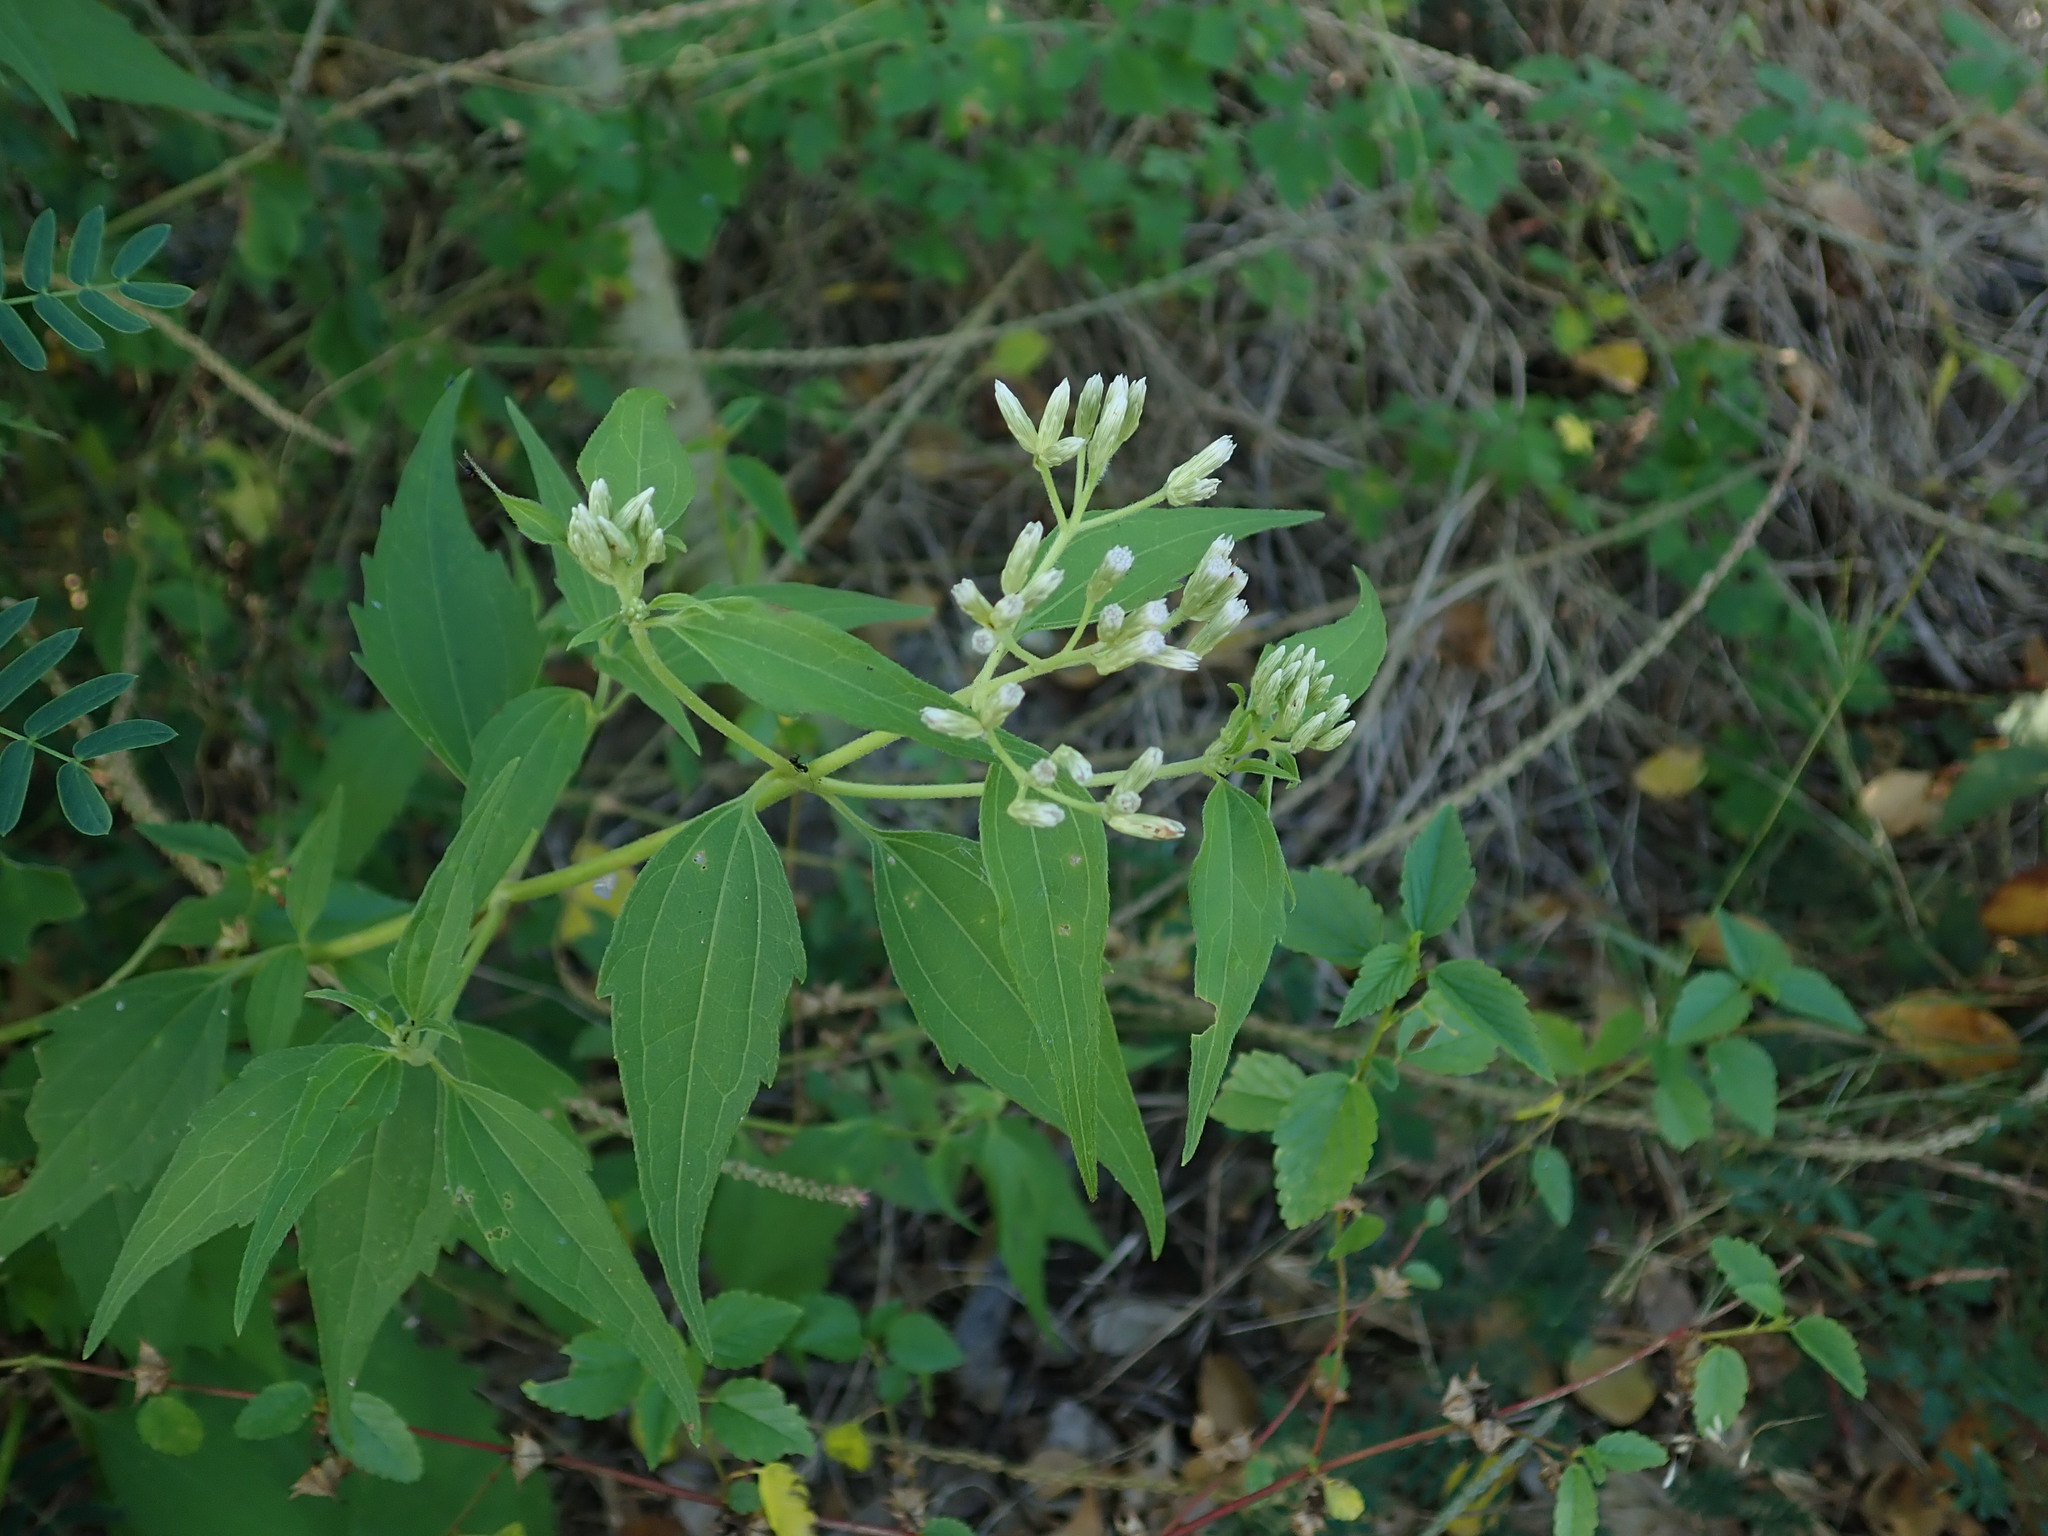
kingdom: Plantae
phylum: Tracheophyta
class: Magnoliopsida
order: Asterales
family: Asteraceae
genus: Chromolaena
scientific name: Chromolaena odorata
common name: Siamweed
